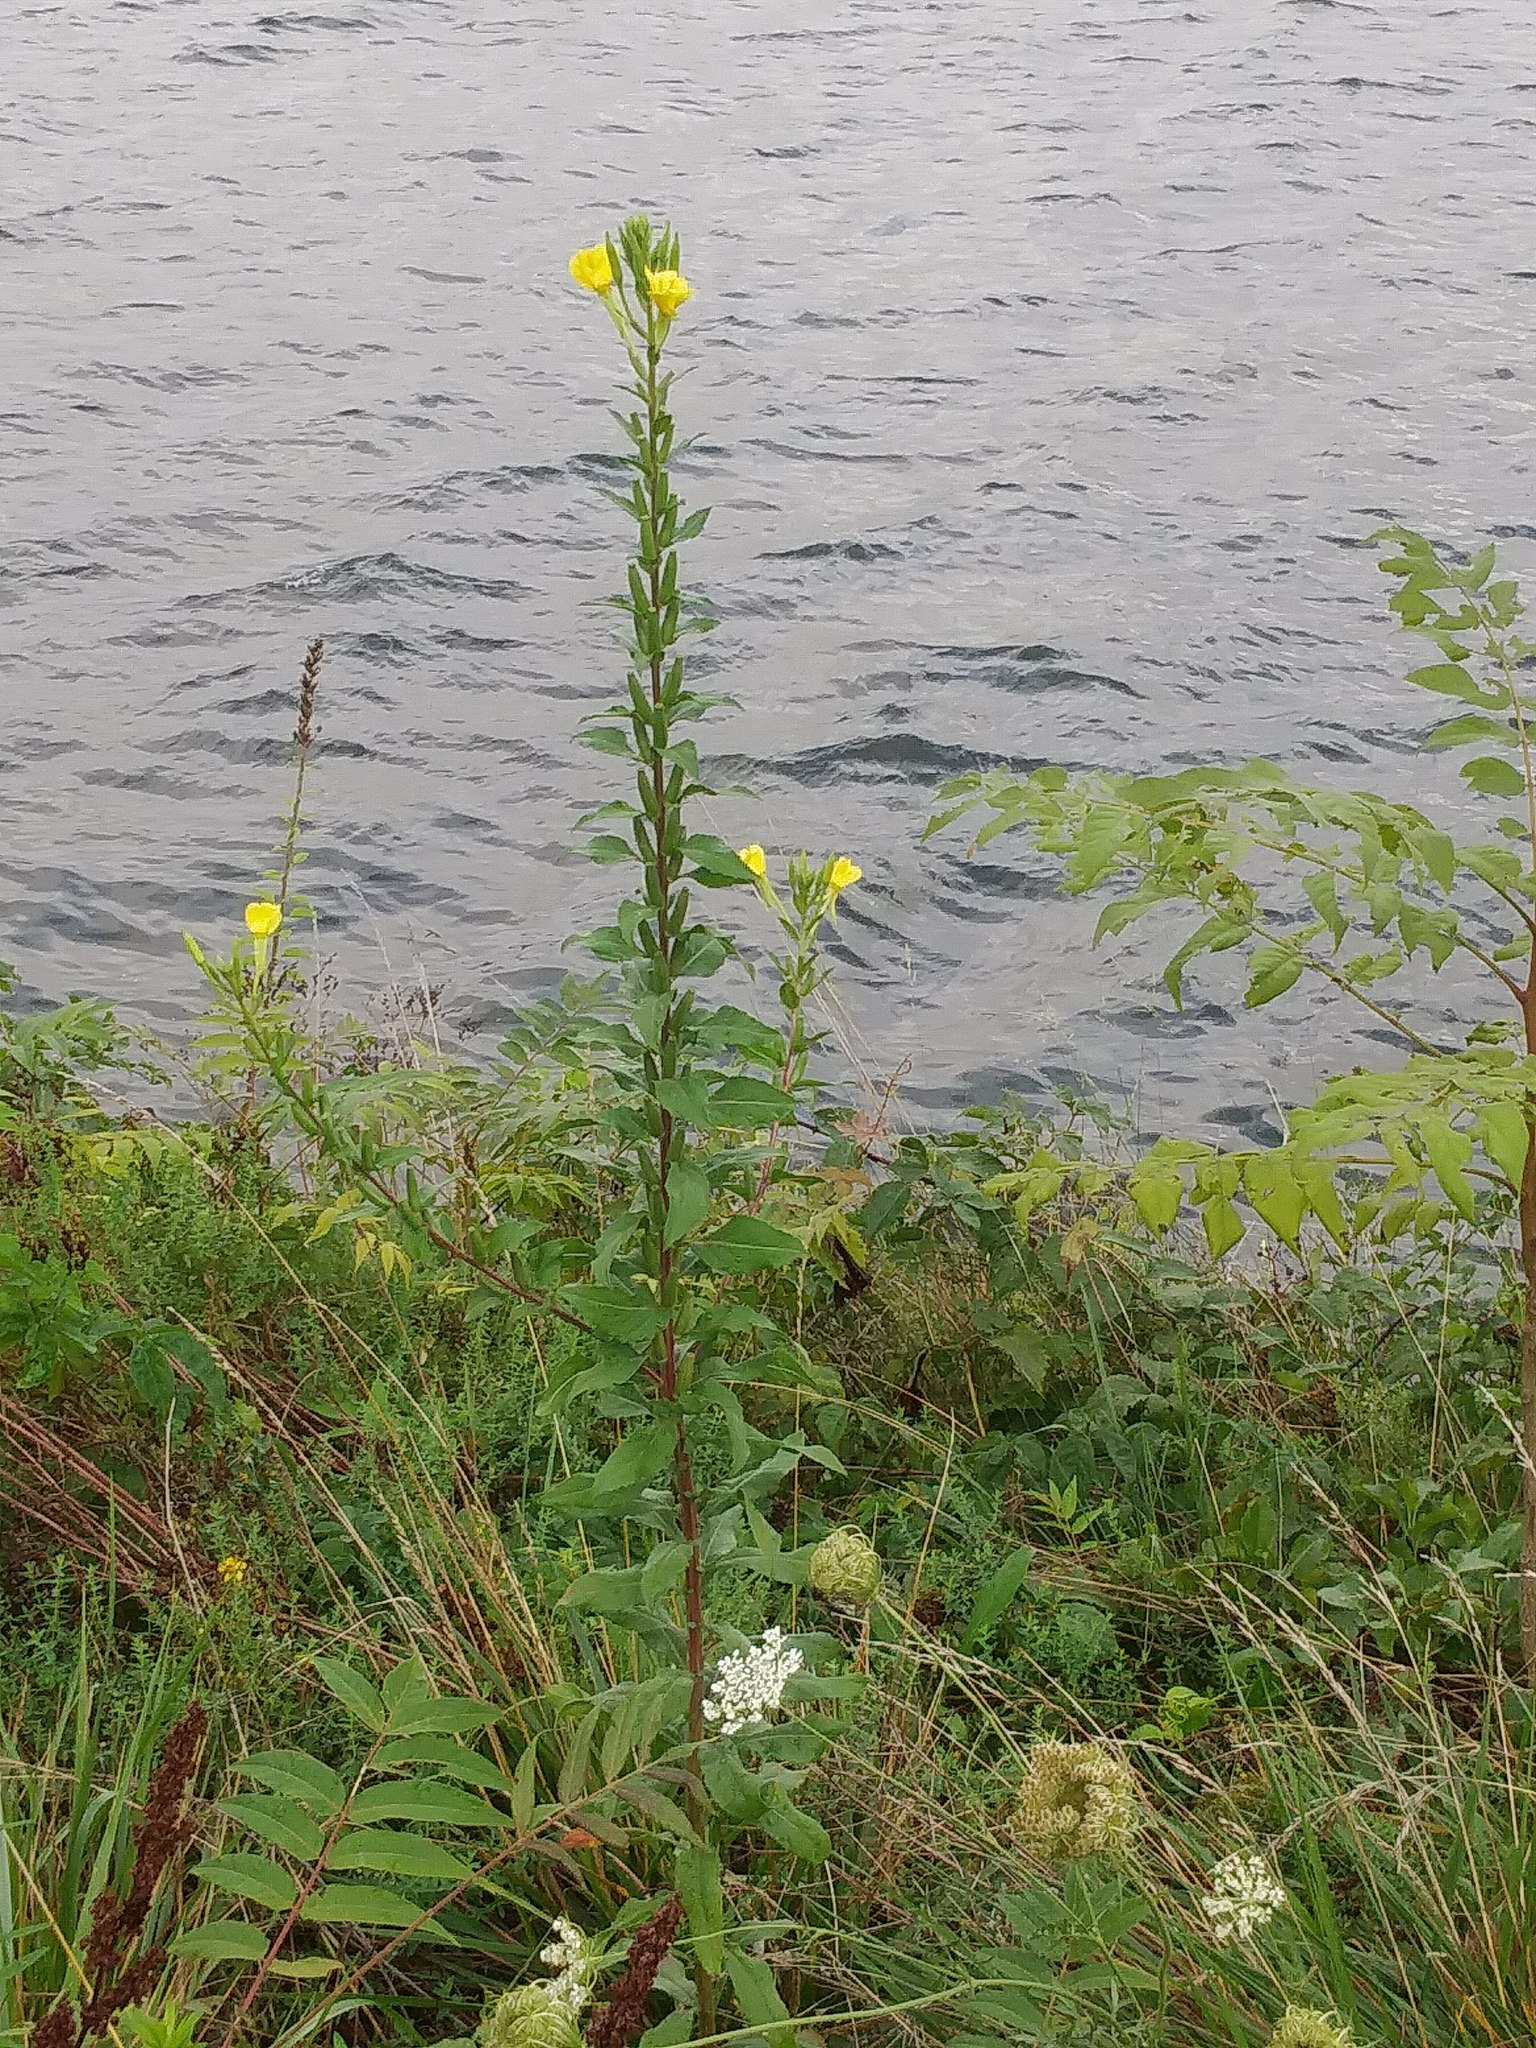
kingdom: Plantae
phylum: Tracheophyta
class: Magnoliopsida
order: Myrtales
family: Onagraceae
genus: Oenothera
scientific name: Oenothera biennis
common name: Common evening-primrose
